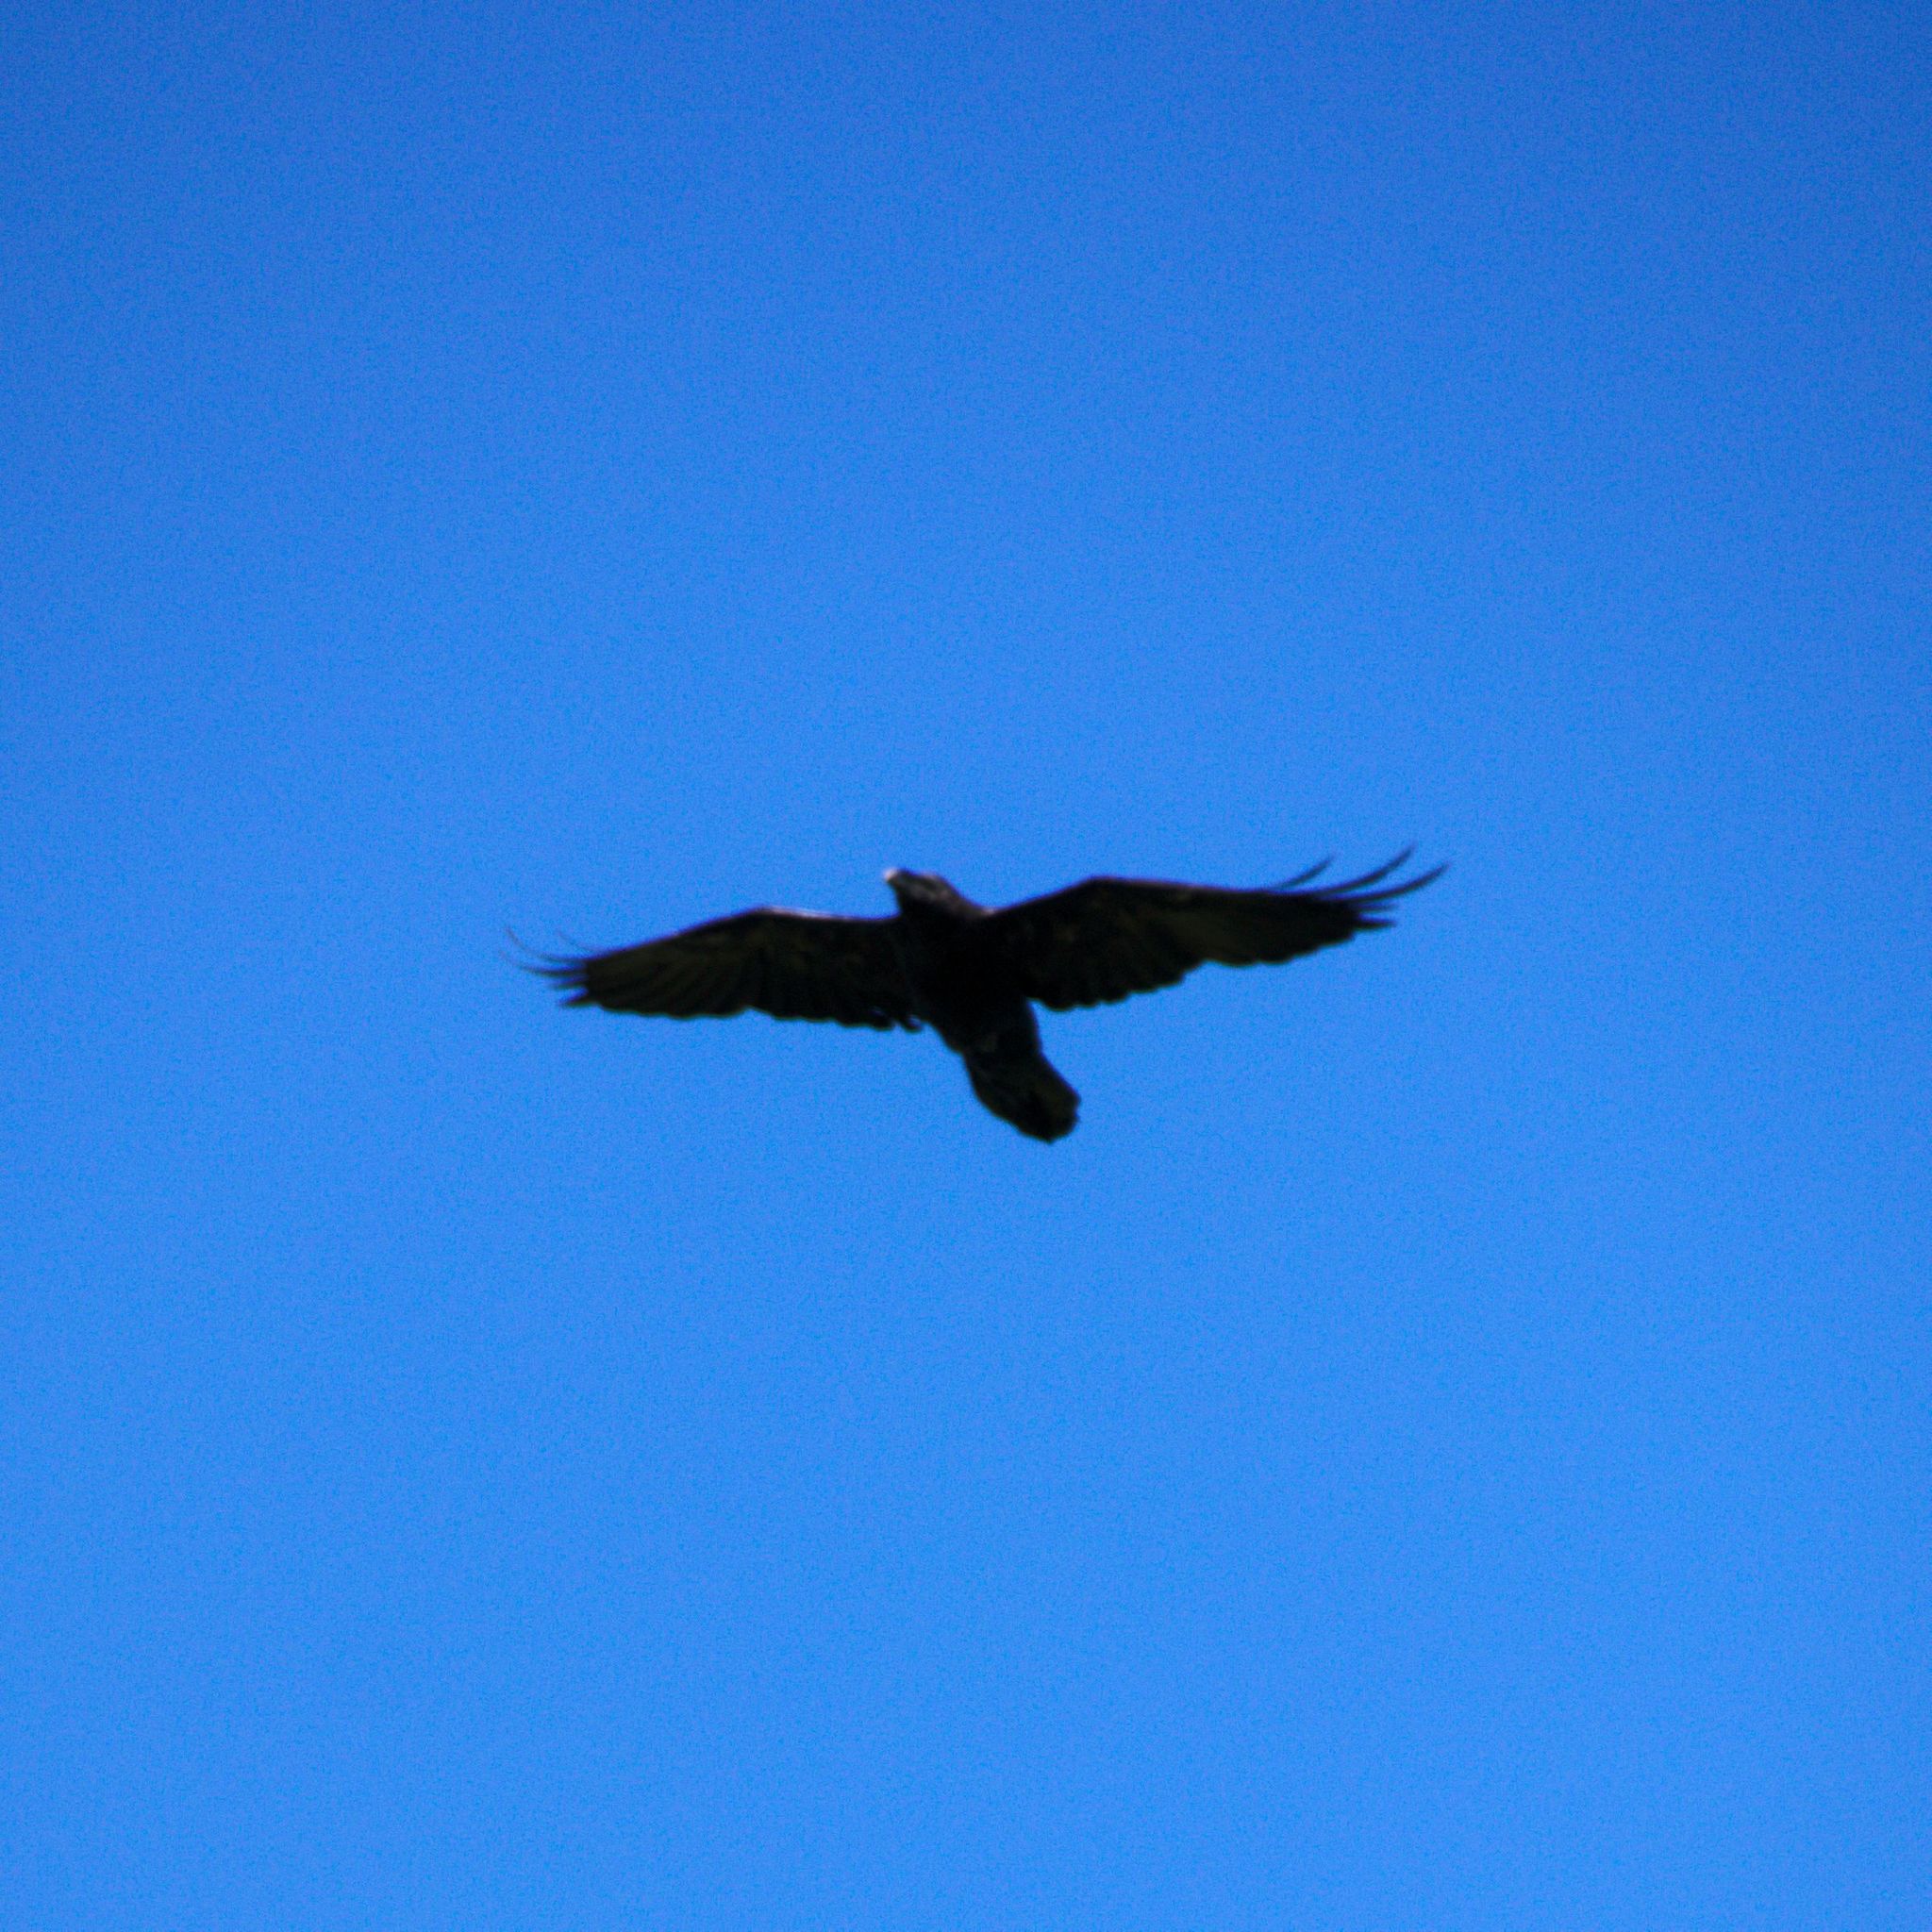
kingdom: Animalia
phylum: Chordata
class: Aves
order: Passeriformes
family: Corvidae
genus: Corvus
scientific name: Corvus corax
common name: Common raven
